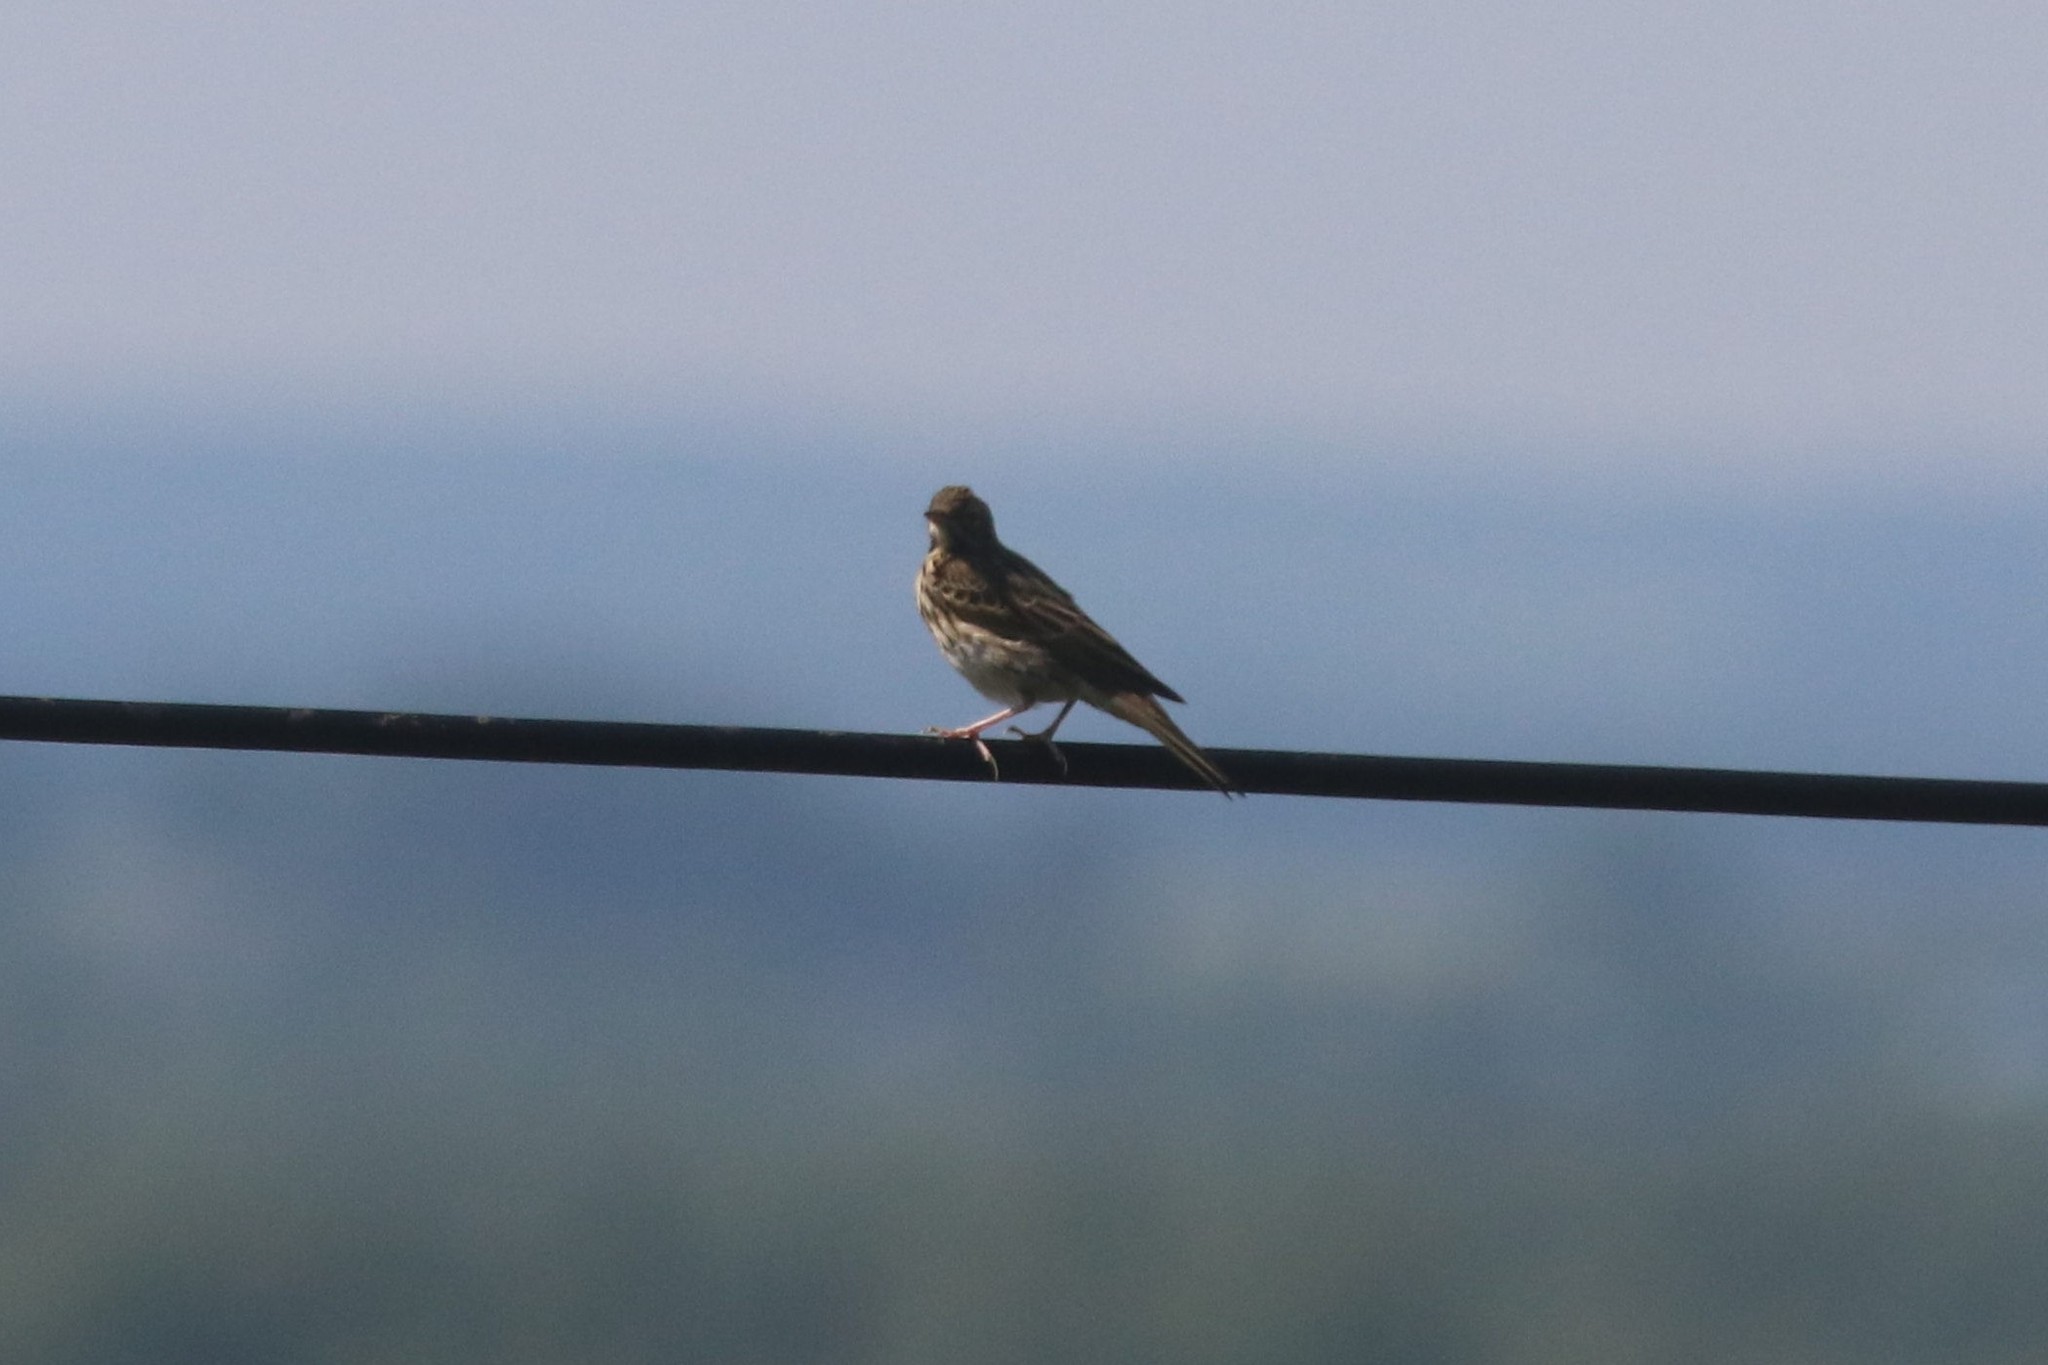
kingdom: Animalia
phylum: Chordata
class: Aves
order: Passeriformes
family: Motacillidae
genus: Anthus
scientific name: Anthus trivialis
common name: Tree pipit
